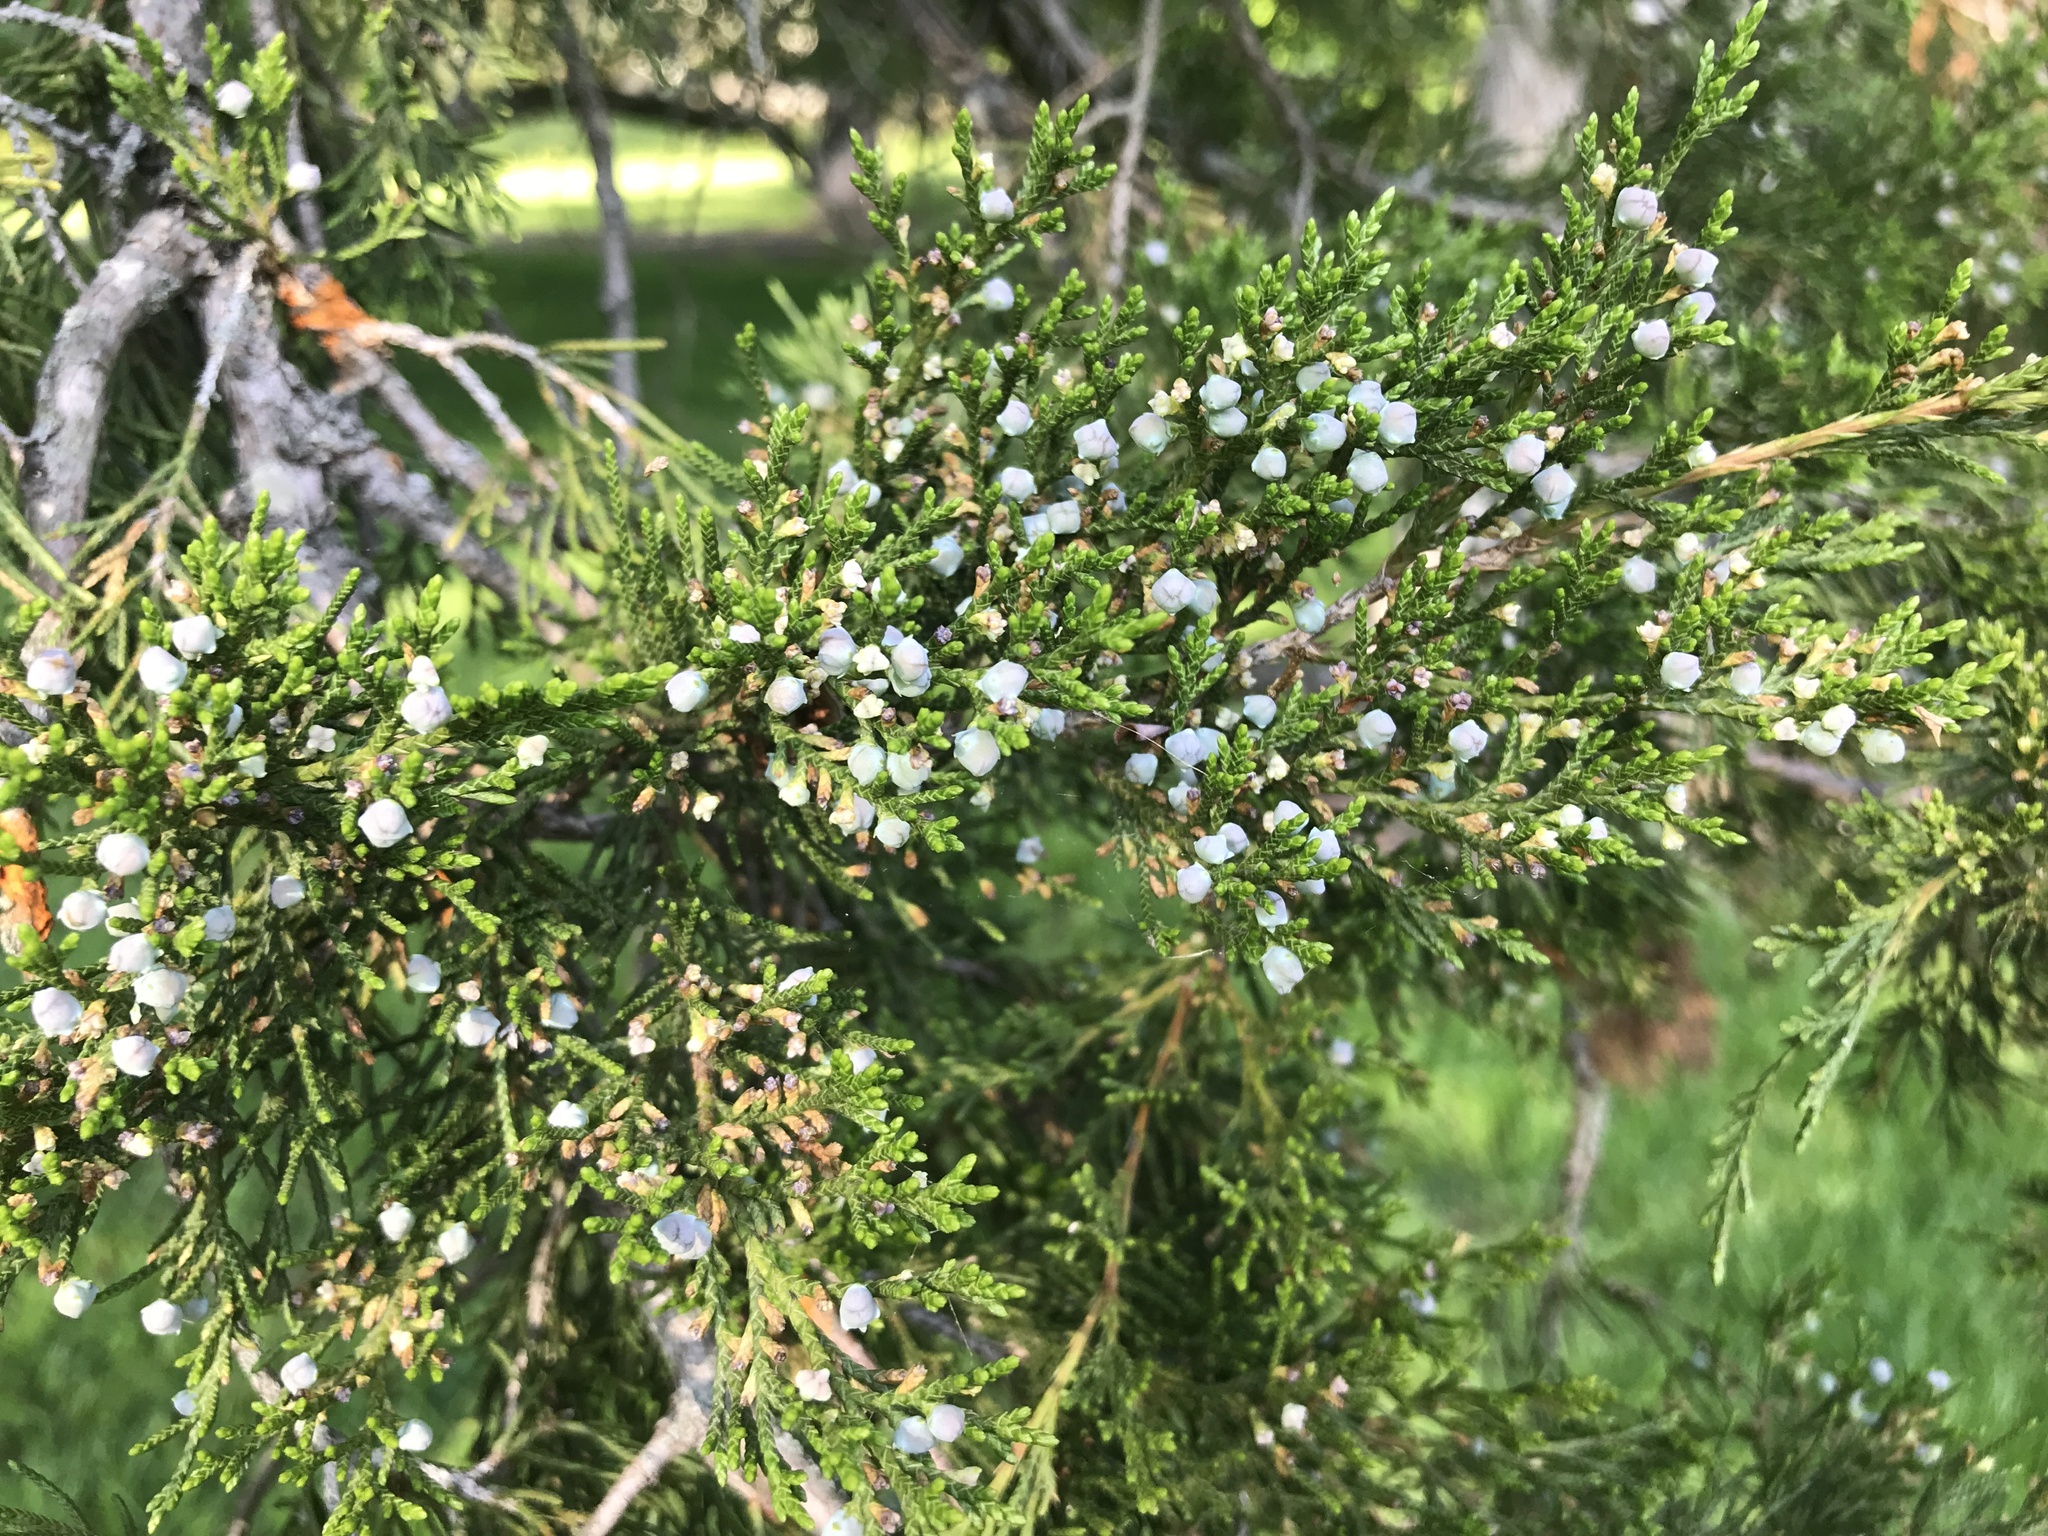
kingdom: Plantae
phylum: Tracheophyta
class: Pinopsida
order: Pinales
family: Cupressaceae
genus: Juniperus
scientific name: Juniperus virginiana
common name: Red juniper
